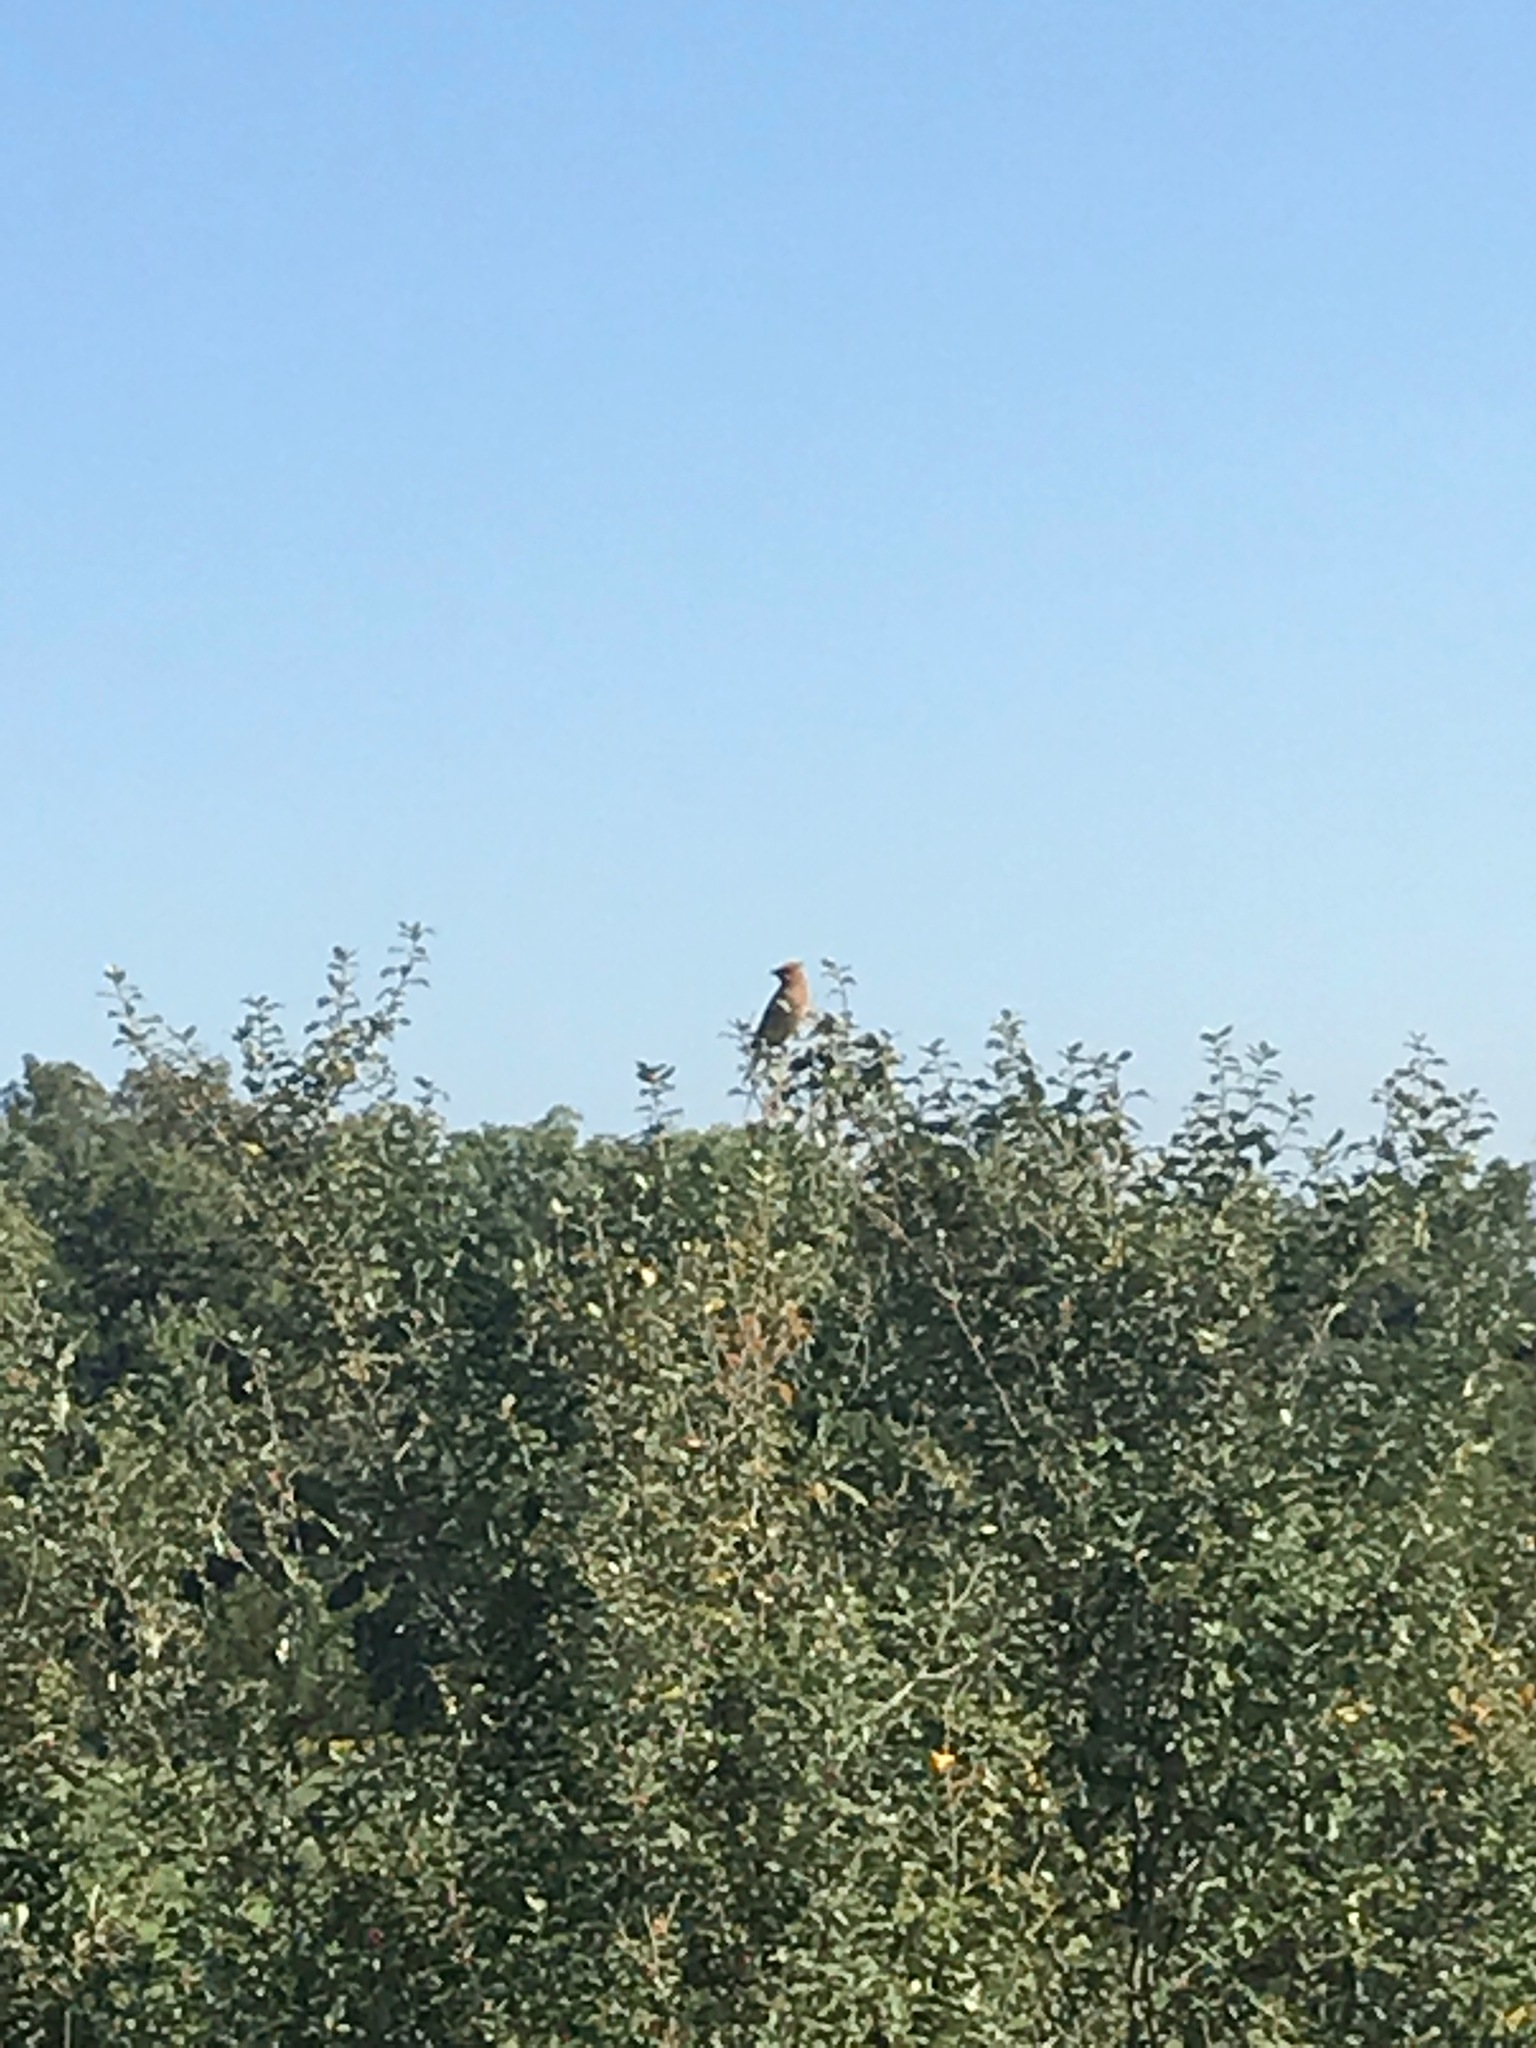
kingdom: Animalia
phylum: Chordata
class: Aves
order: Passeriformes
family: Bombycillidae
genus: Bombycilla
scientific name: Bombycilla cedrorum
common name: Cedar waxwing
